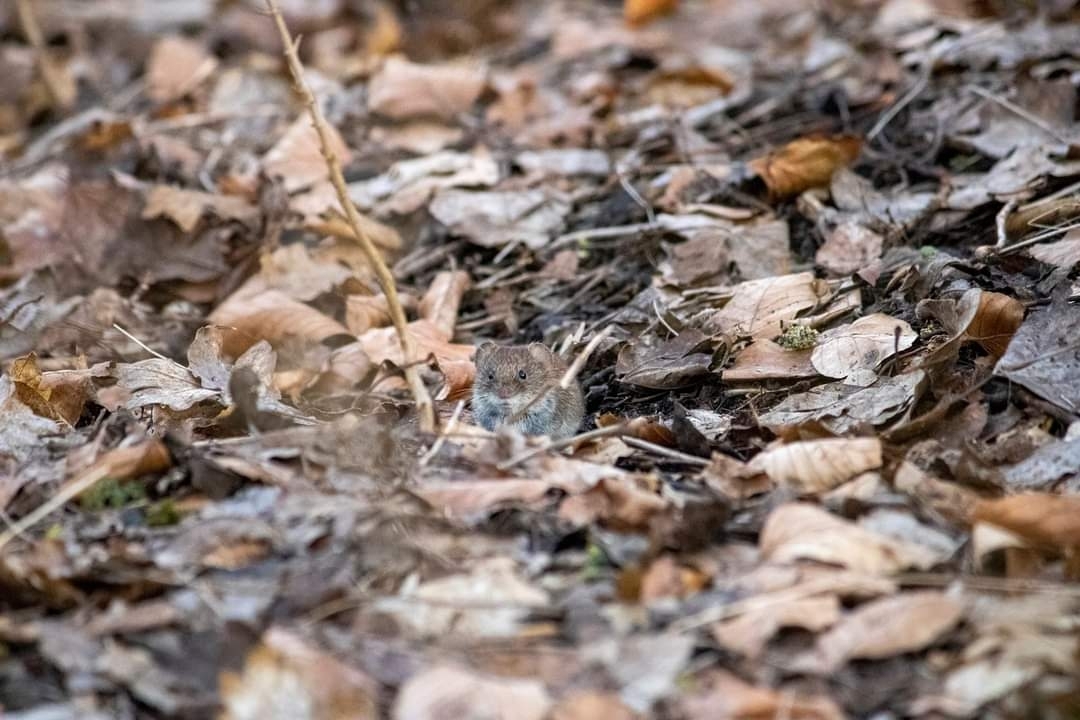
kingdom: Animalia
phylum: Chordata
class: Mammalia
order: Rodentia
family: Cricetidae
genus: Myodes
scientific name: Myodes glareolus
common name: Bank vole
